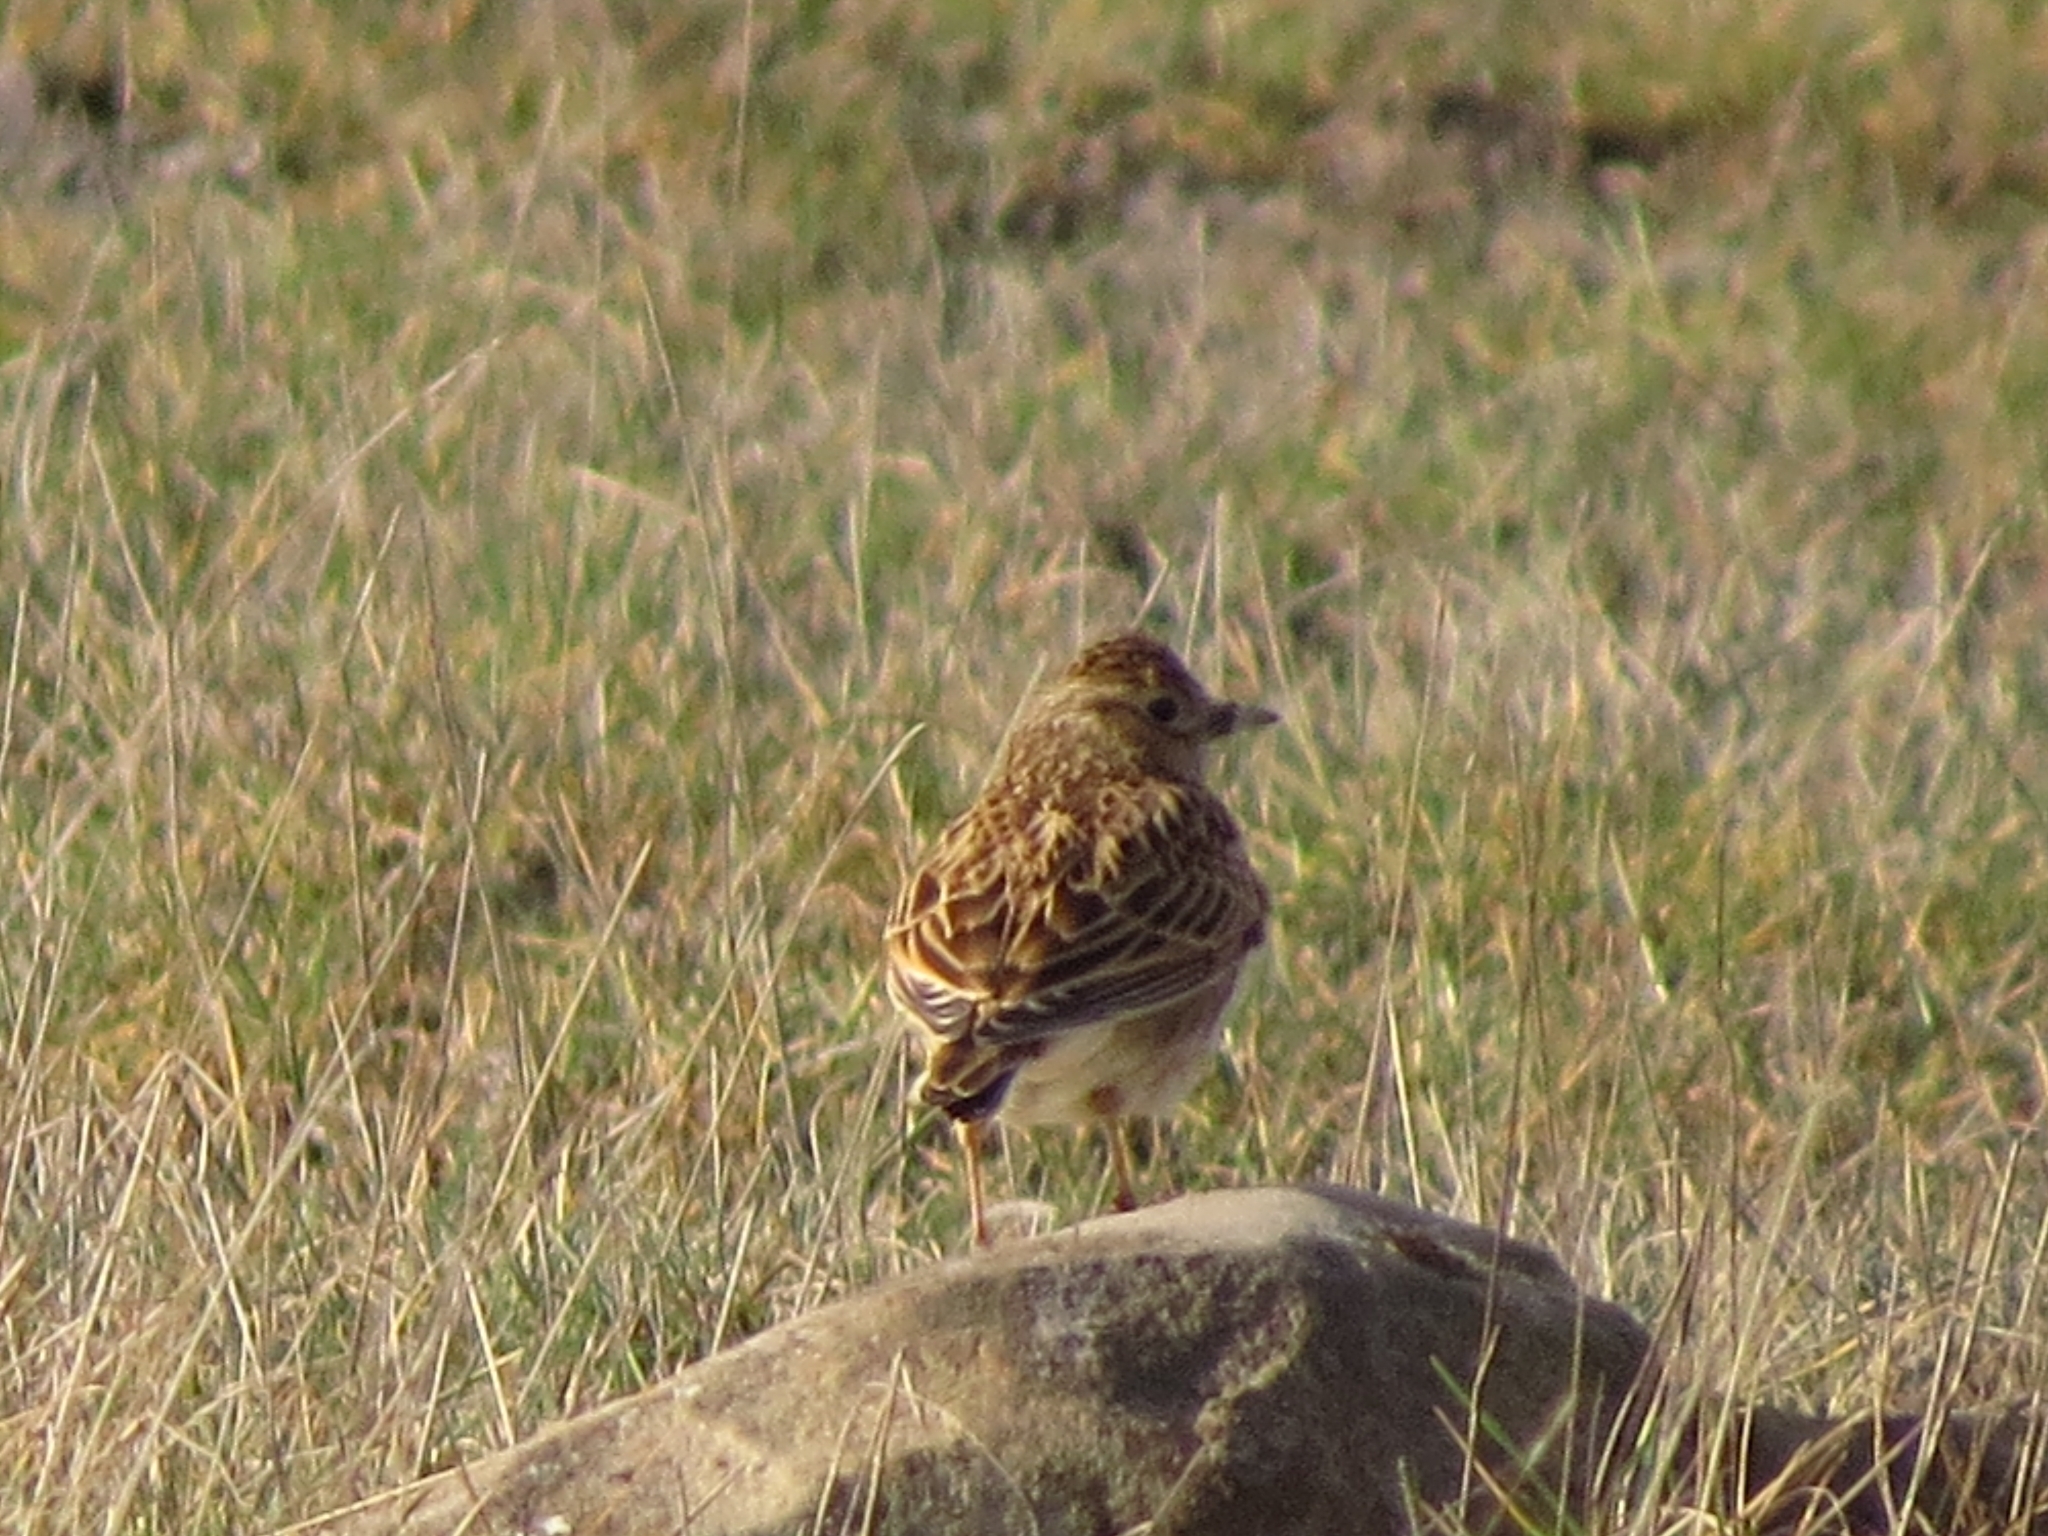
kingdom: Animalia
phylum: Chordata
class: Aves
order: Passeriformes
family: Alaudidae
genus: Alauda
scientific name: Alauda arvensis
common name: Eurasian skylark
